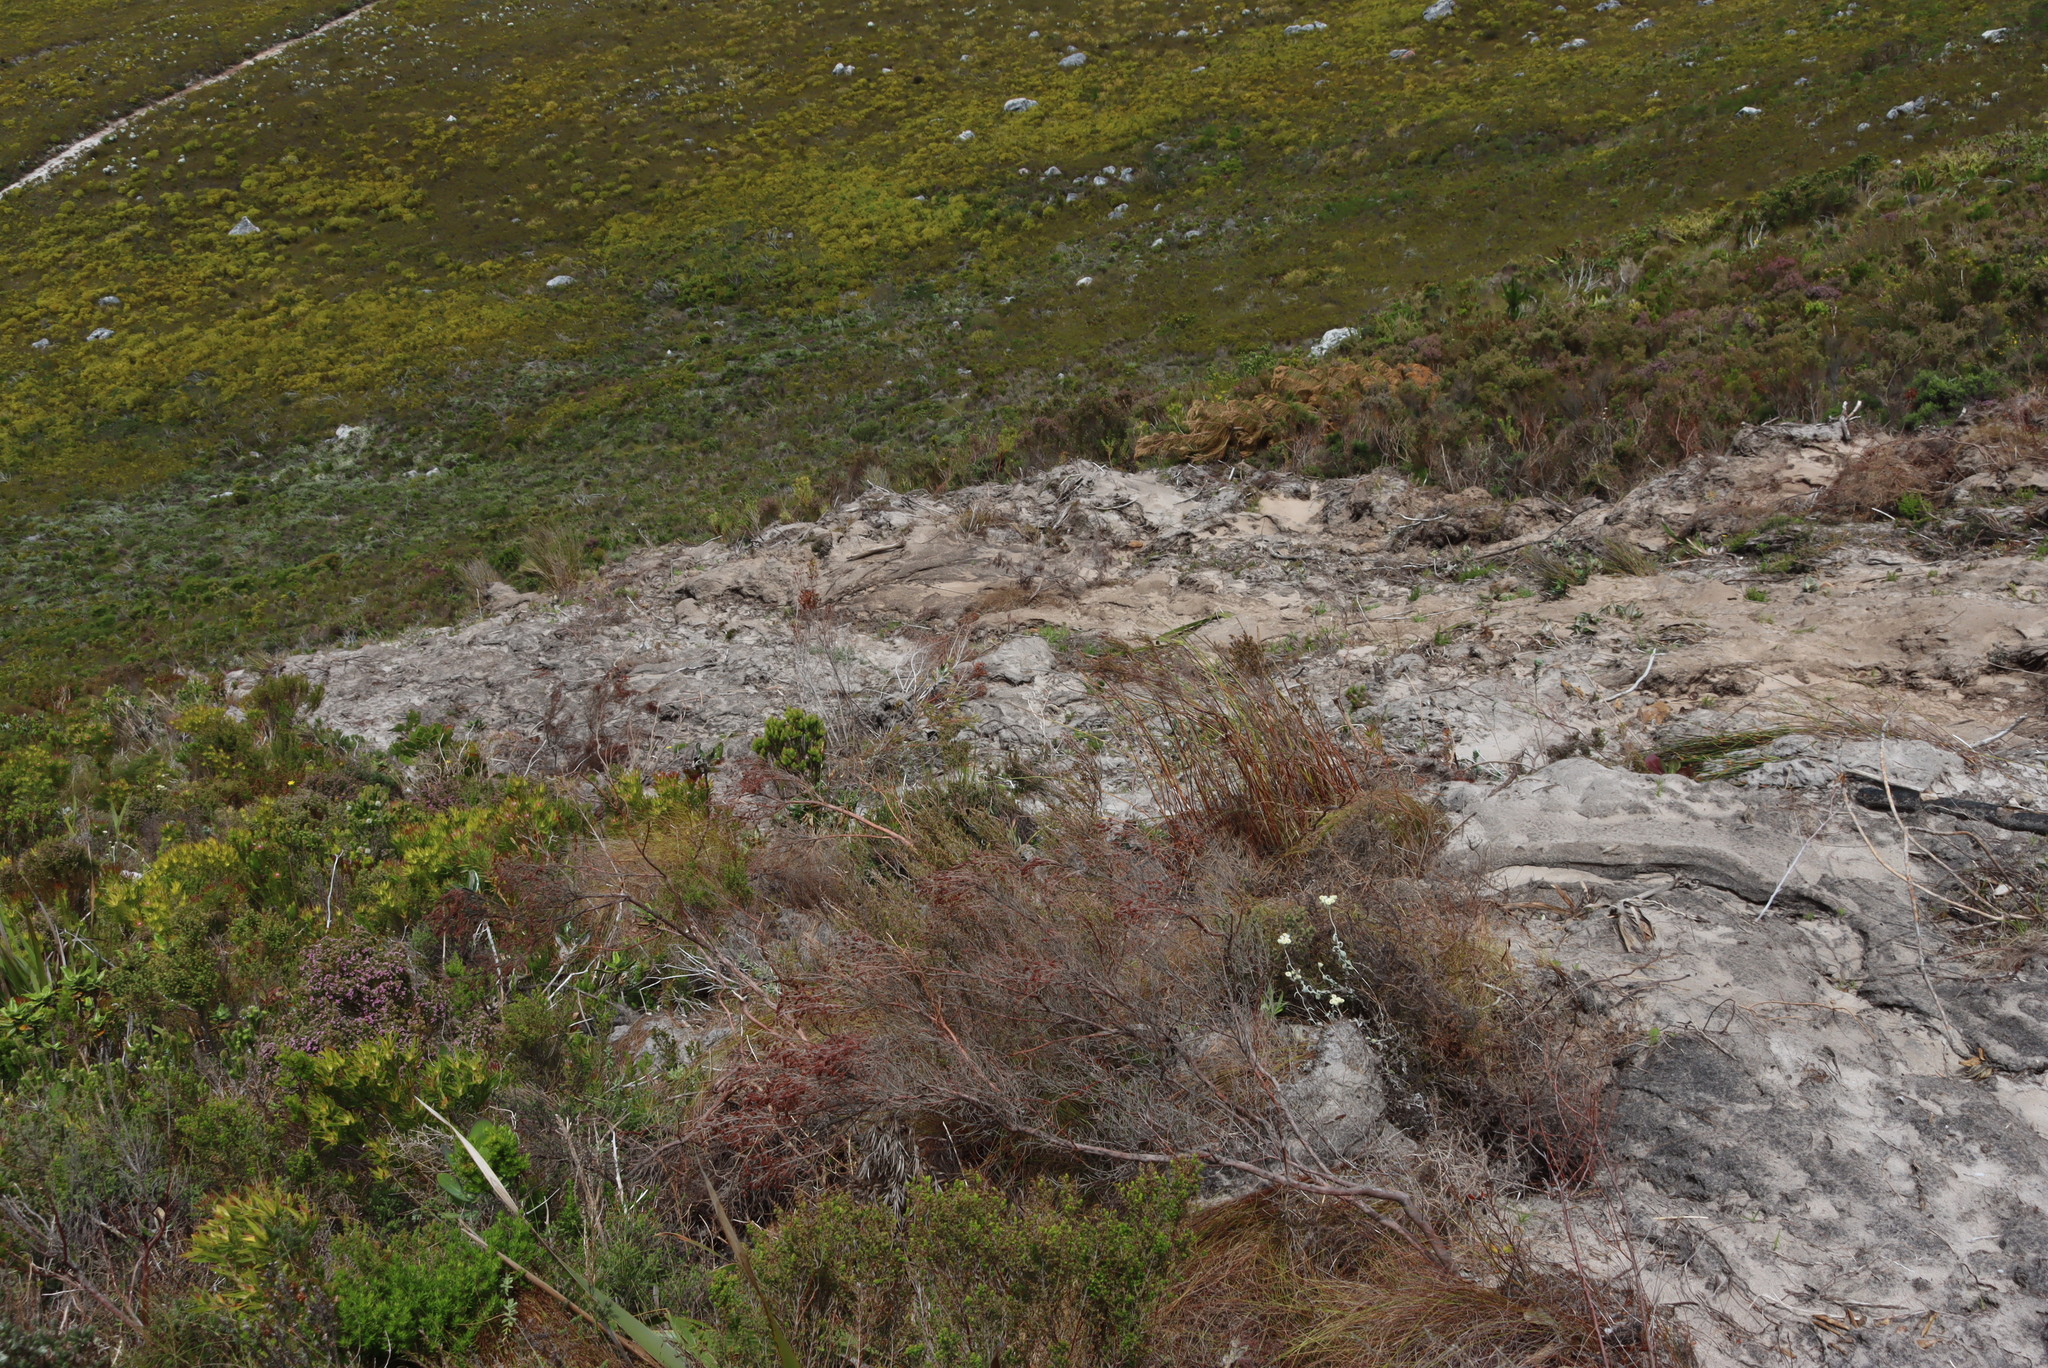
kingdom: Plantae
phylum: Tracheophyta
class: Magnoliopsida
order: Asterales
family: Asteraceae
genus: Helichrysum
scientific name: Helichrysum pandurifolium
